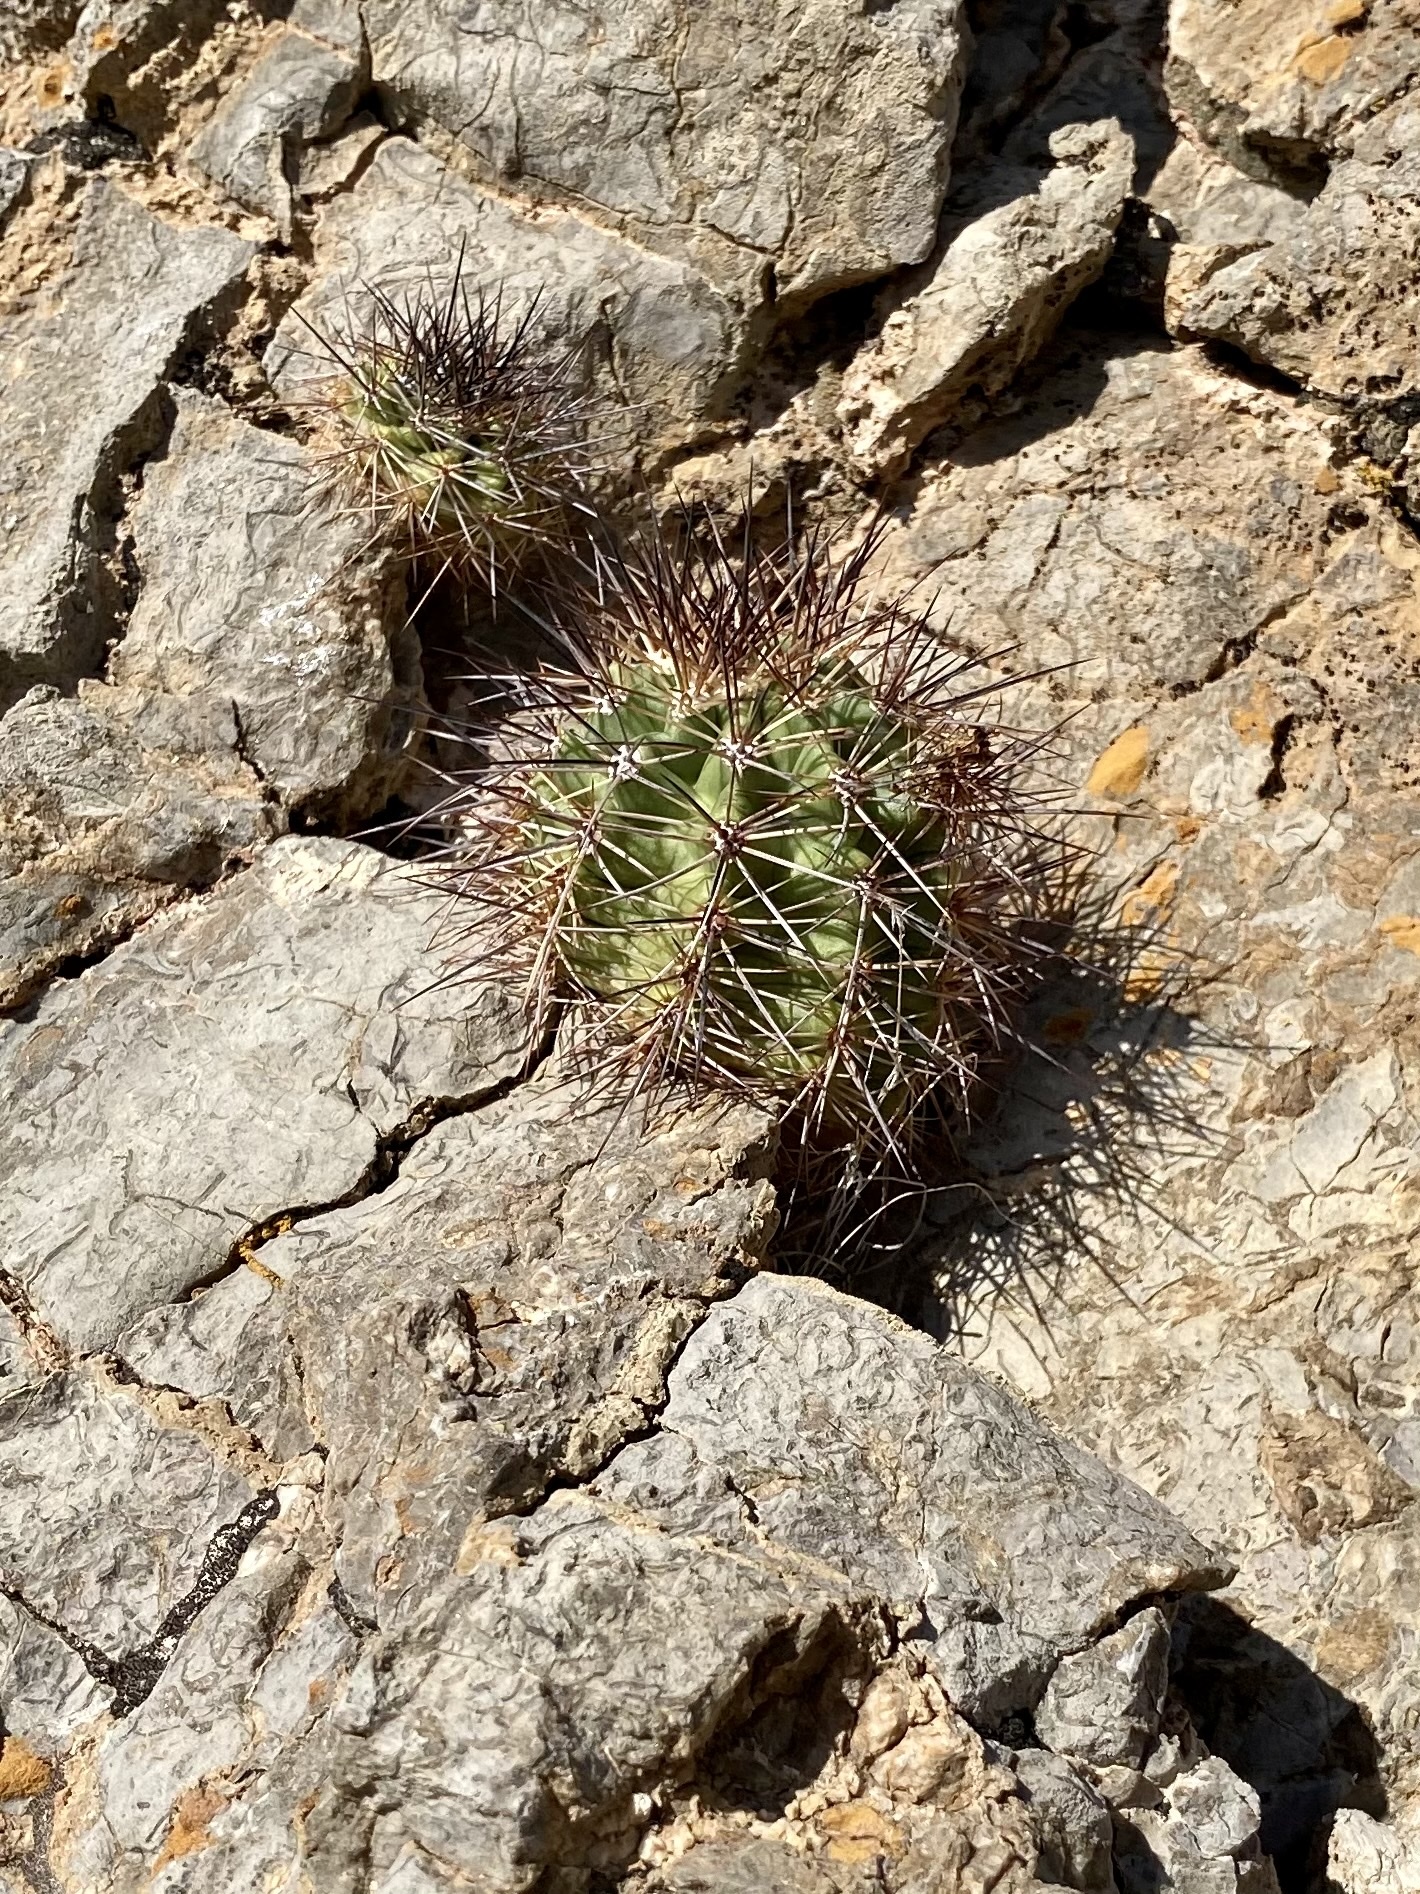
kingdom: Plantae
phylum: Tracheophyta
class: Magnoliopsida
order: Caryophyllales
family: Cactaceae
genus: Echinocereus
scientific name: Echinocereus coccineus
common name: Scarlet hedgehog cactus
